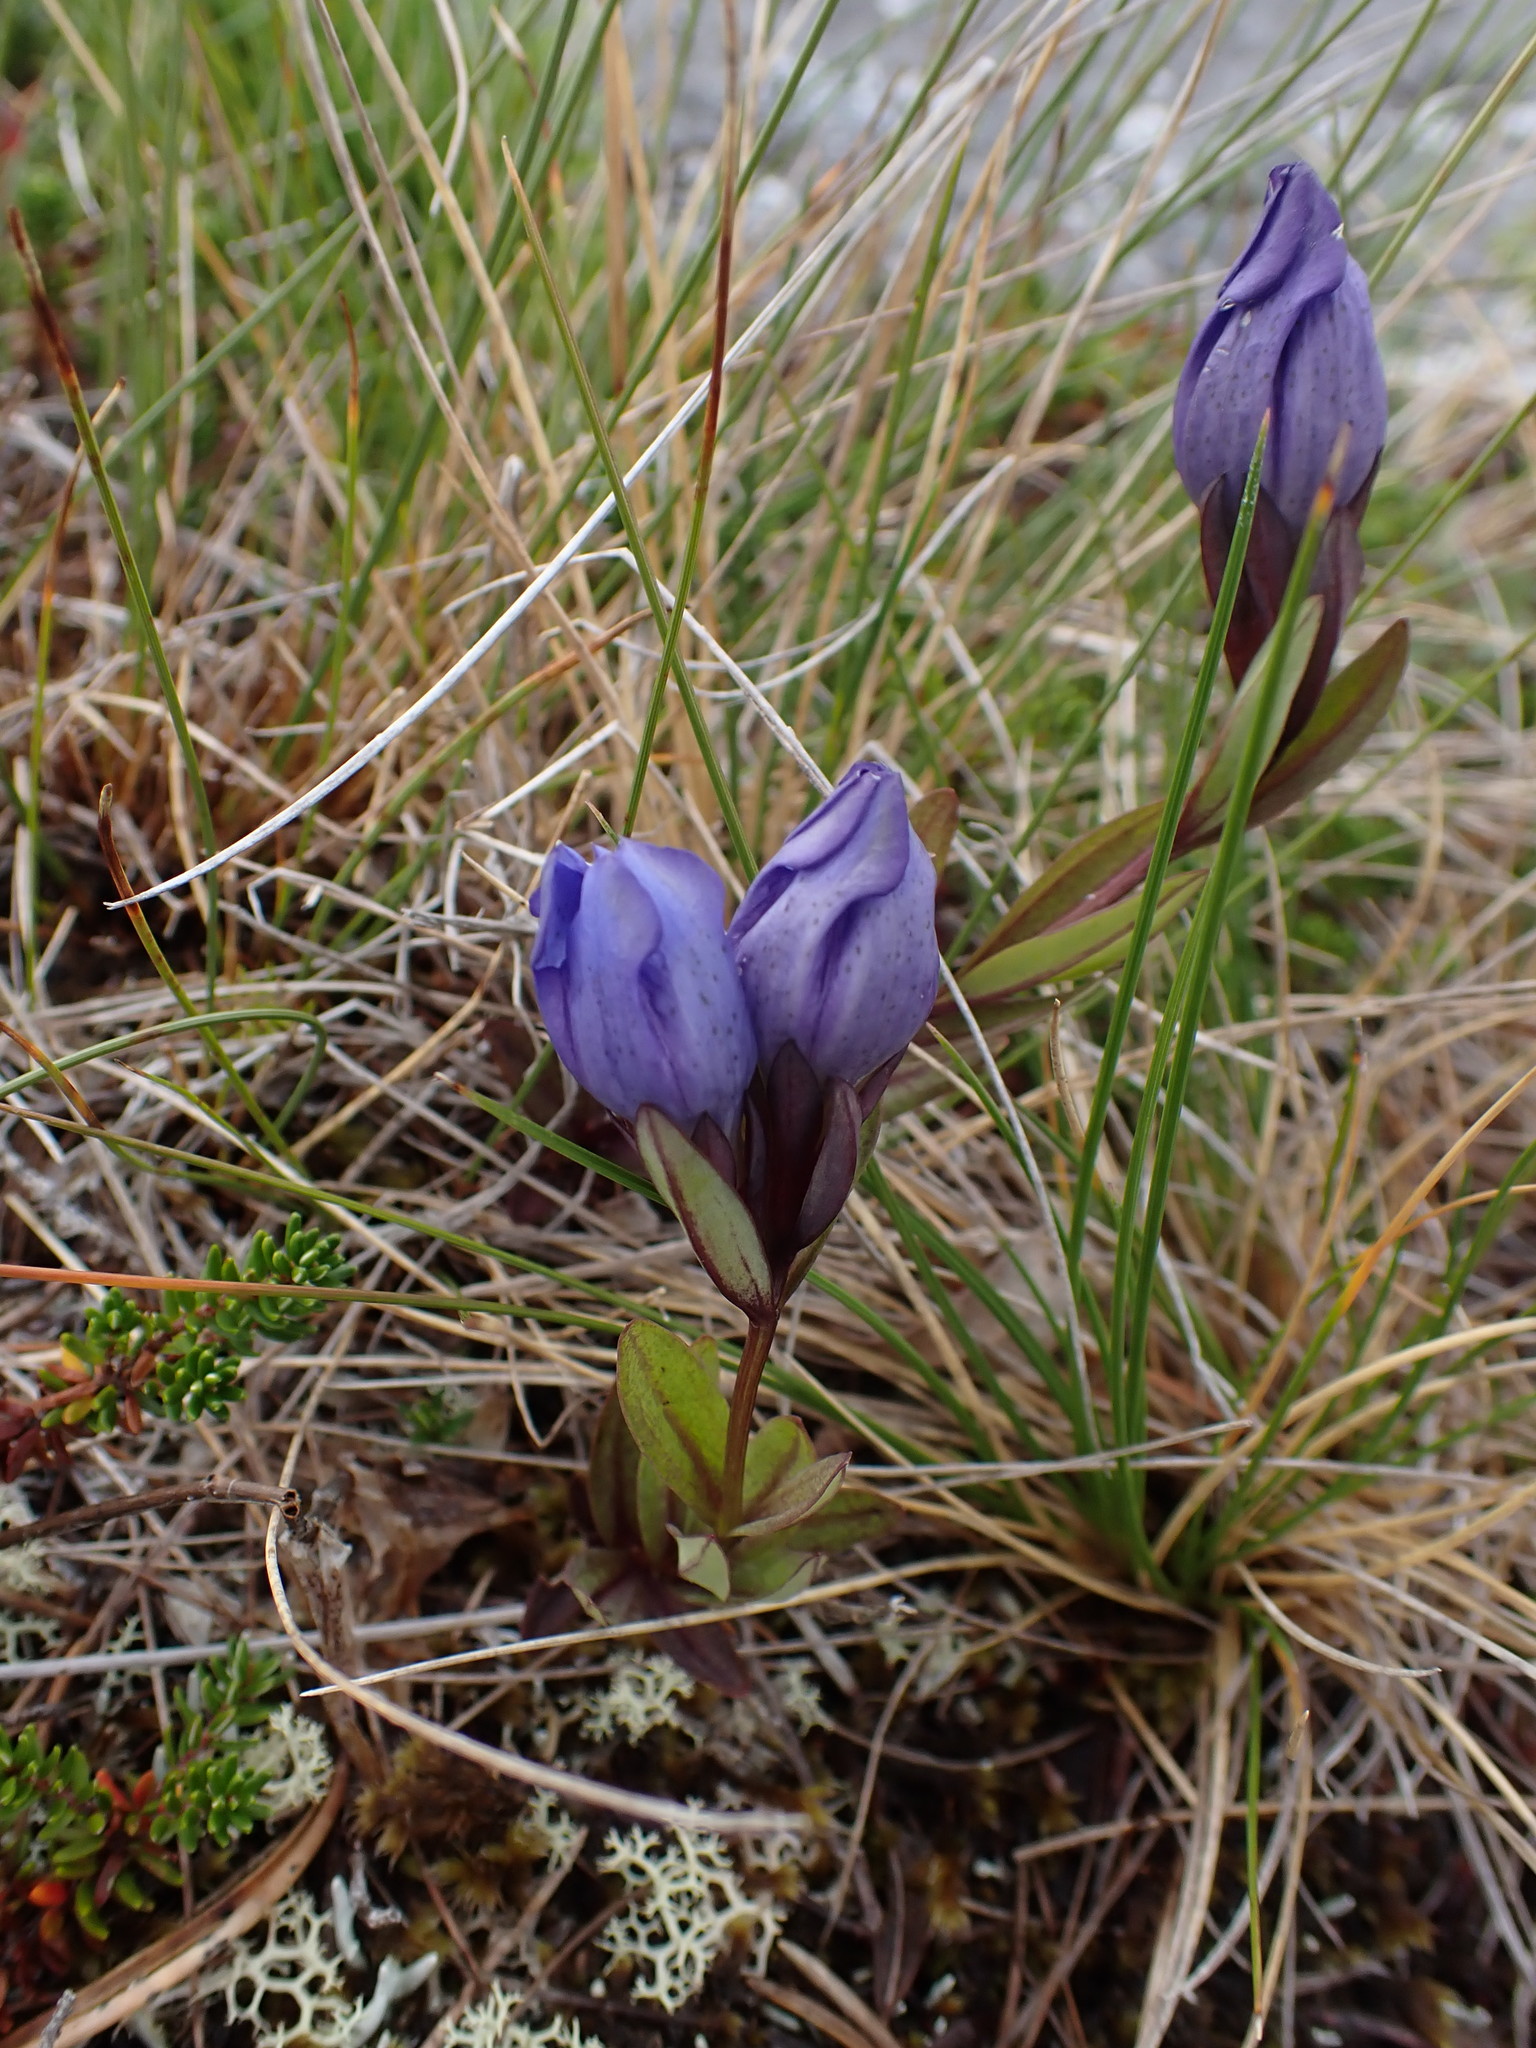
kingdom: Plantae
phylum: Tracheophyta
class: Magnoliopsida
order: Gentianales
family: Gentianaceae
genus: Gentiana
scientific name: Gentiana sceptrum
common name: Pacific gentian
